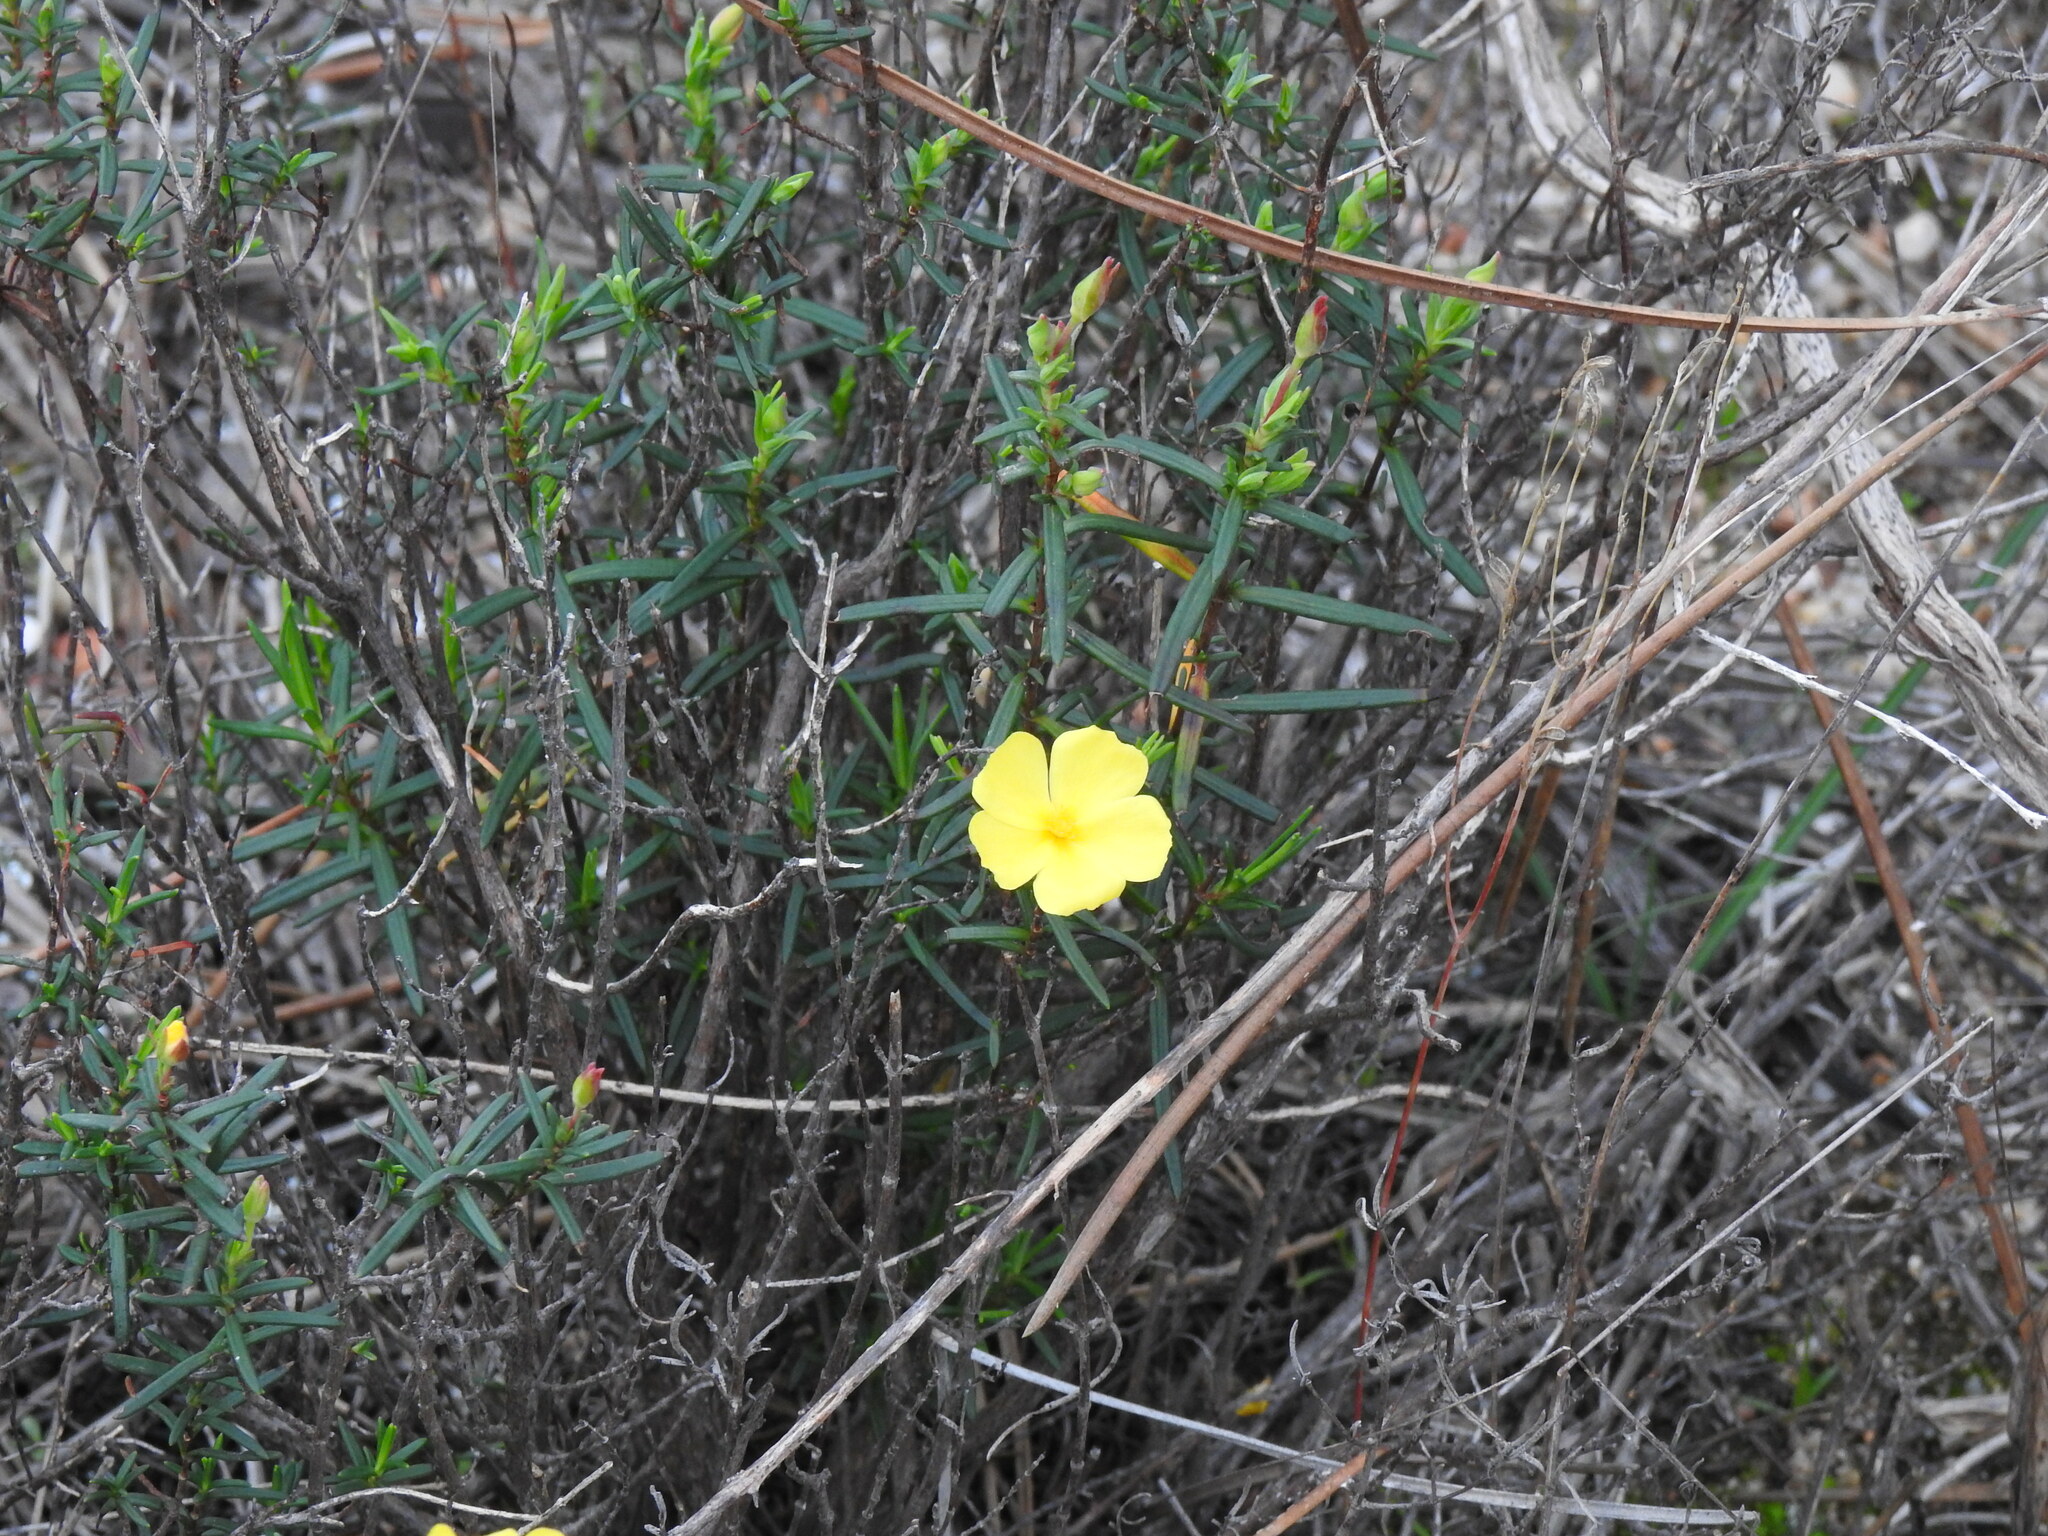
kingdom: Plantae
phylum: Tracheophyta
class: Magnoliopsida
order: Malvales
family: Cistaceae
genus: Halimium
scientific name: Halimium calycinum
